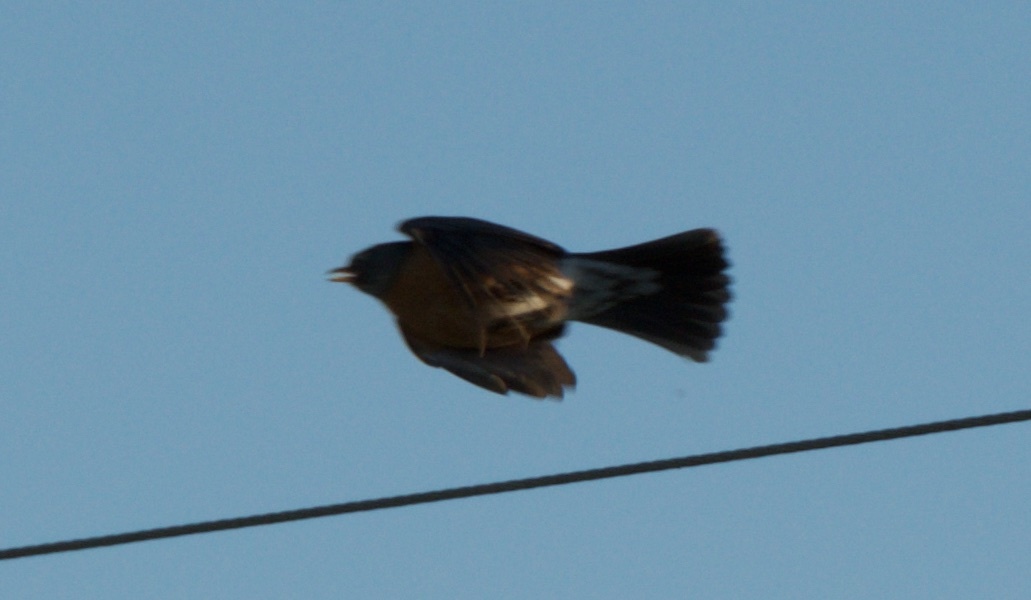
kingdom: Animalia
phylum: Chordata
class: Aves
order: Passeriformes
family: Turdidae
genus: Turdus
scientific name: Turdus migratorius
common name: American robin
